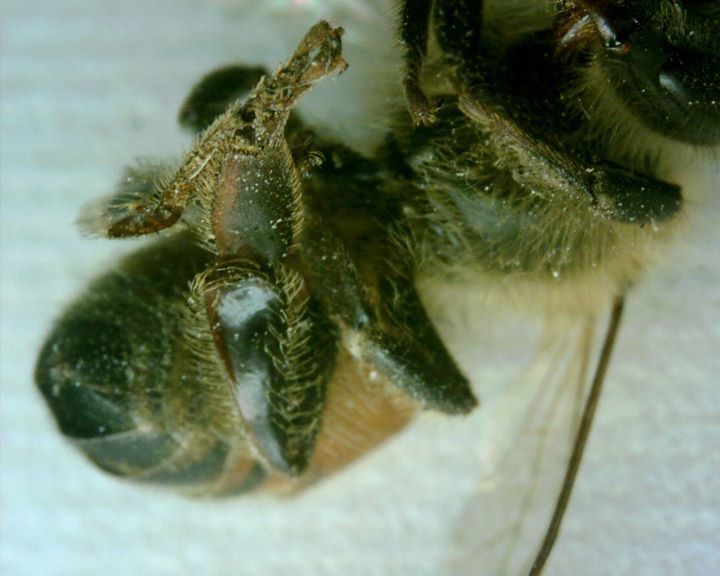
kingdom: Animalia
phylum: Arthropoda
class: Insecta
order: Hymenoptera
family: Apidae
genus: Apis
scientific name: Apis mellifera
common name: Honey bee
